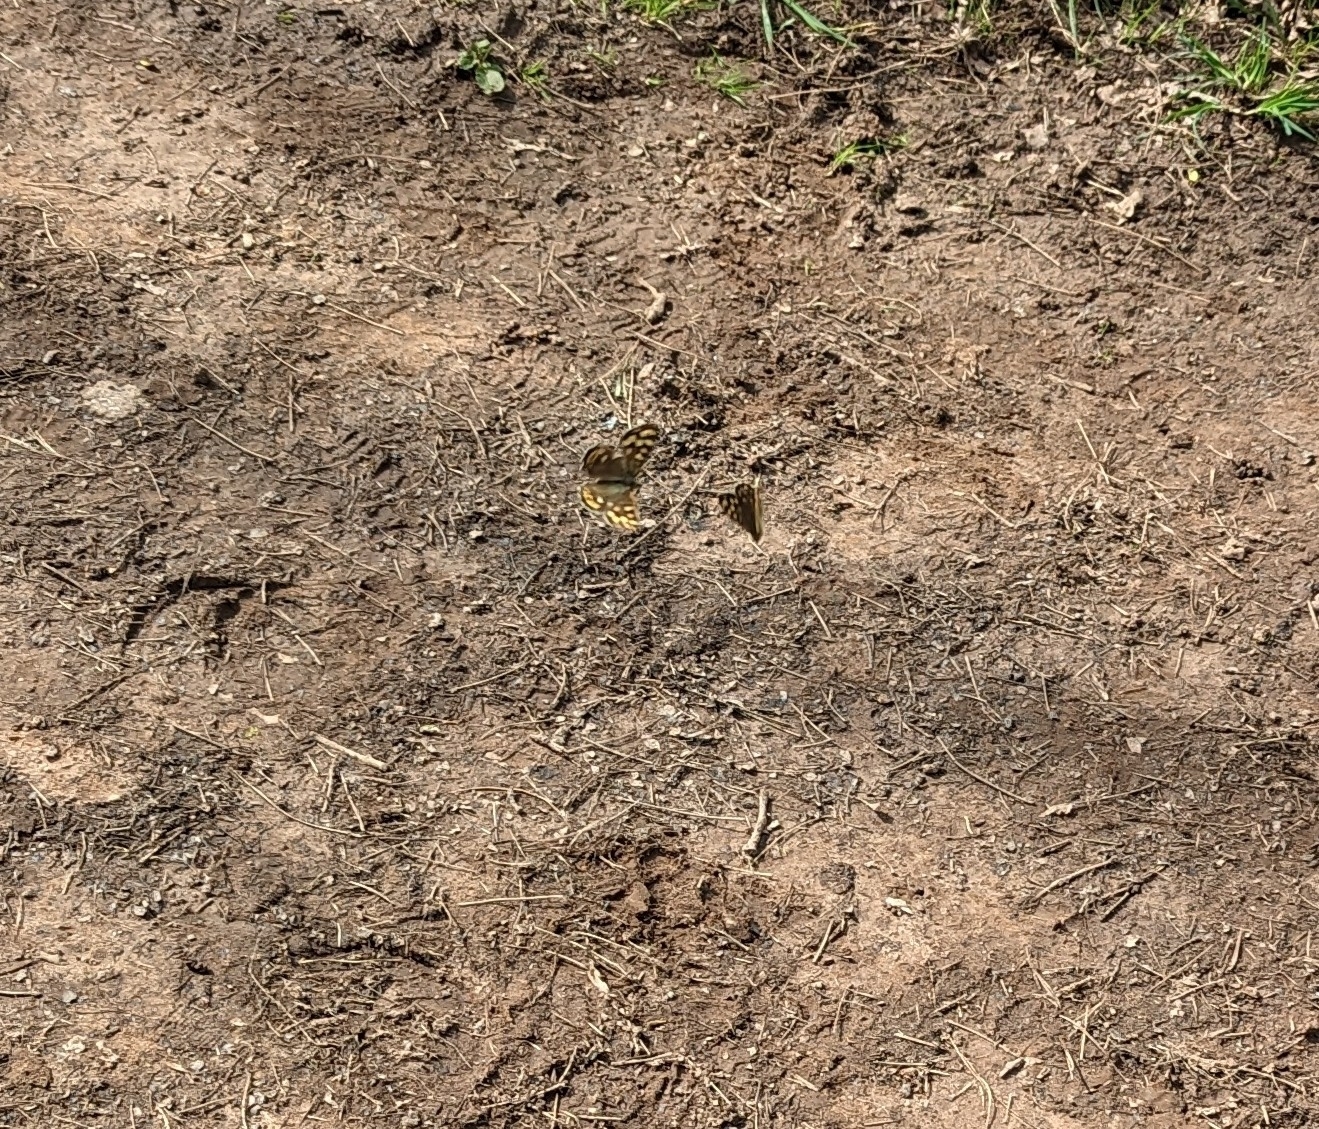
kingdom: Animalia
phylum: Arthropoda
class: Insecta
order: Lepidoptera
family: Nymphalidae
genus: Pararge
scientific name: Pararge aegeria
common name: Speckled wood
